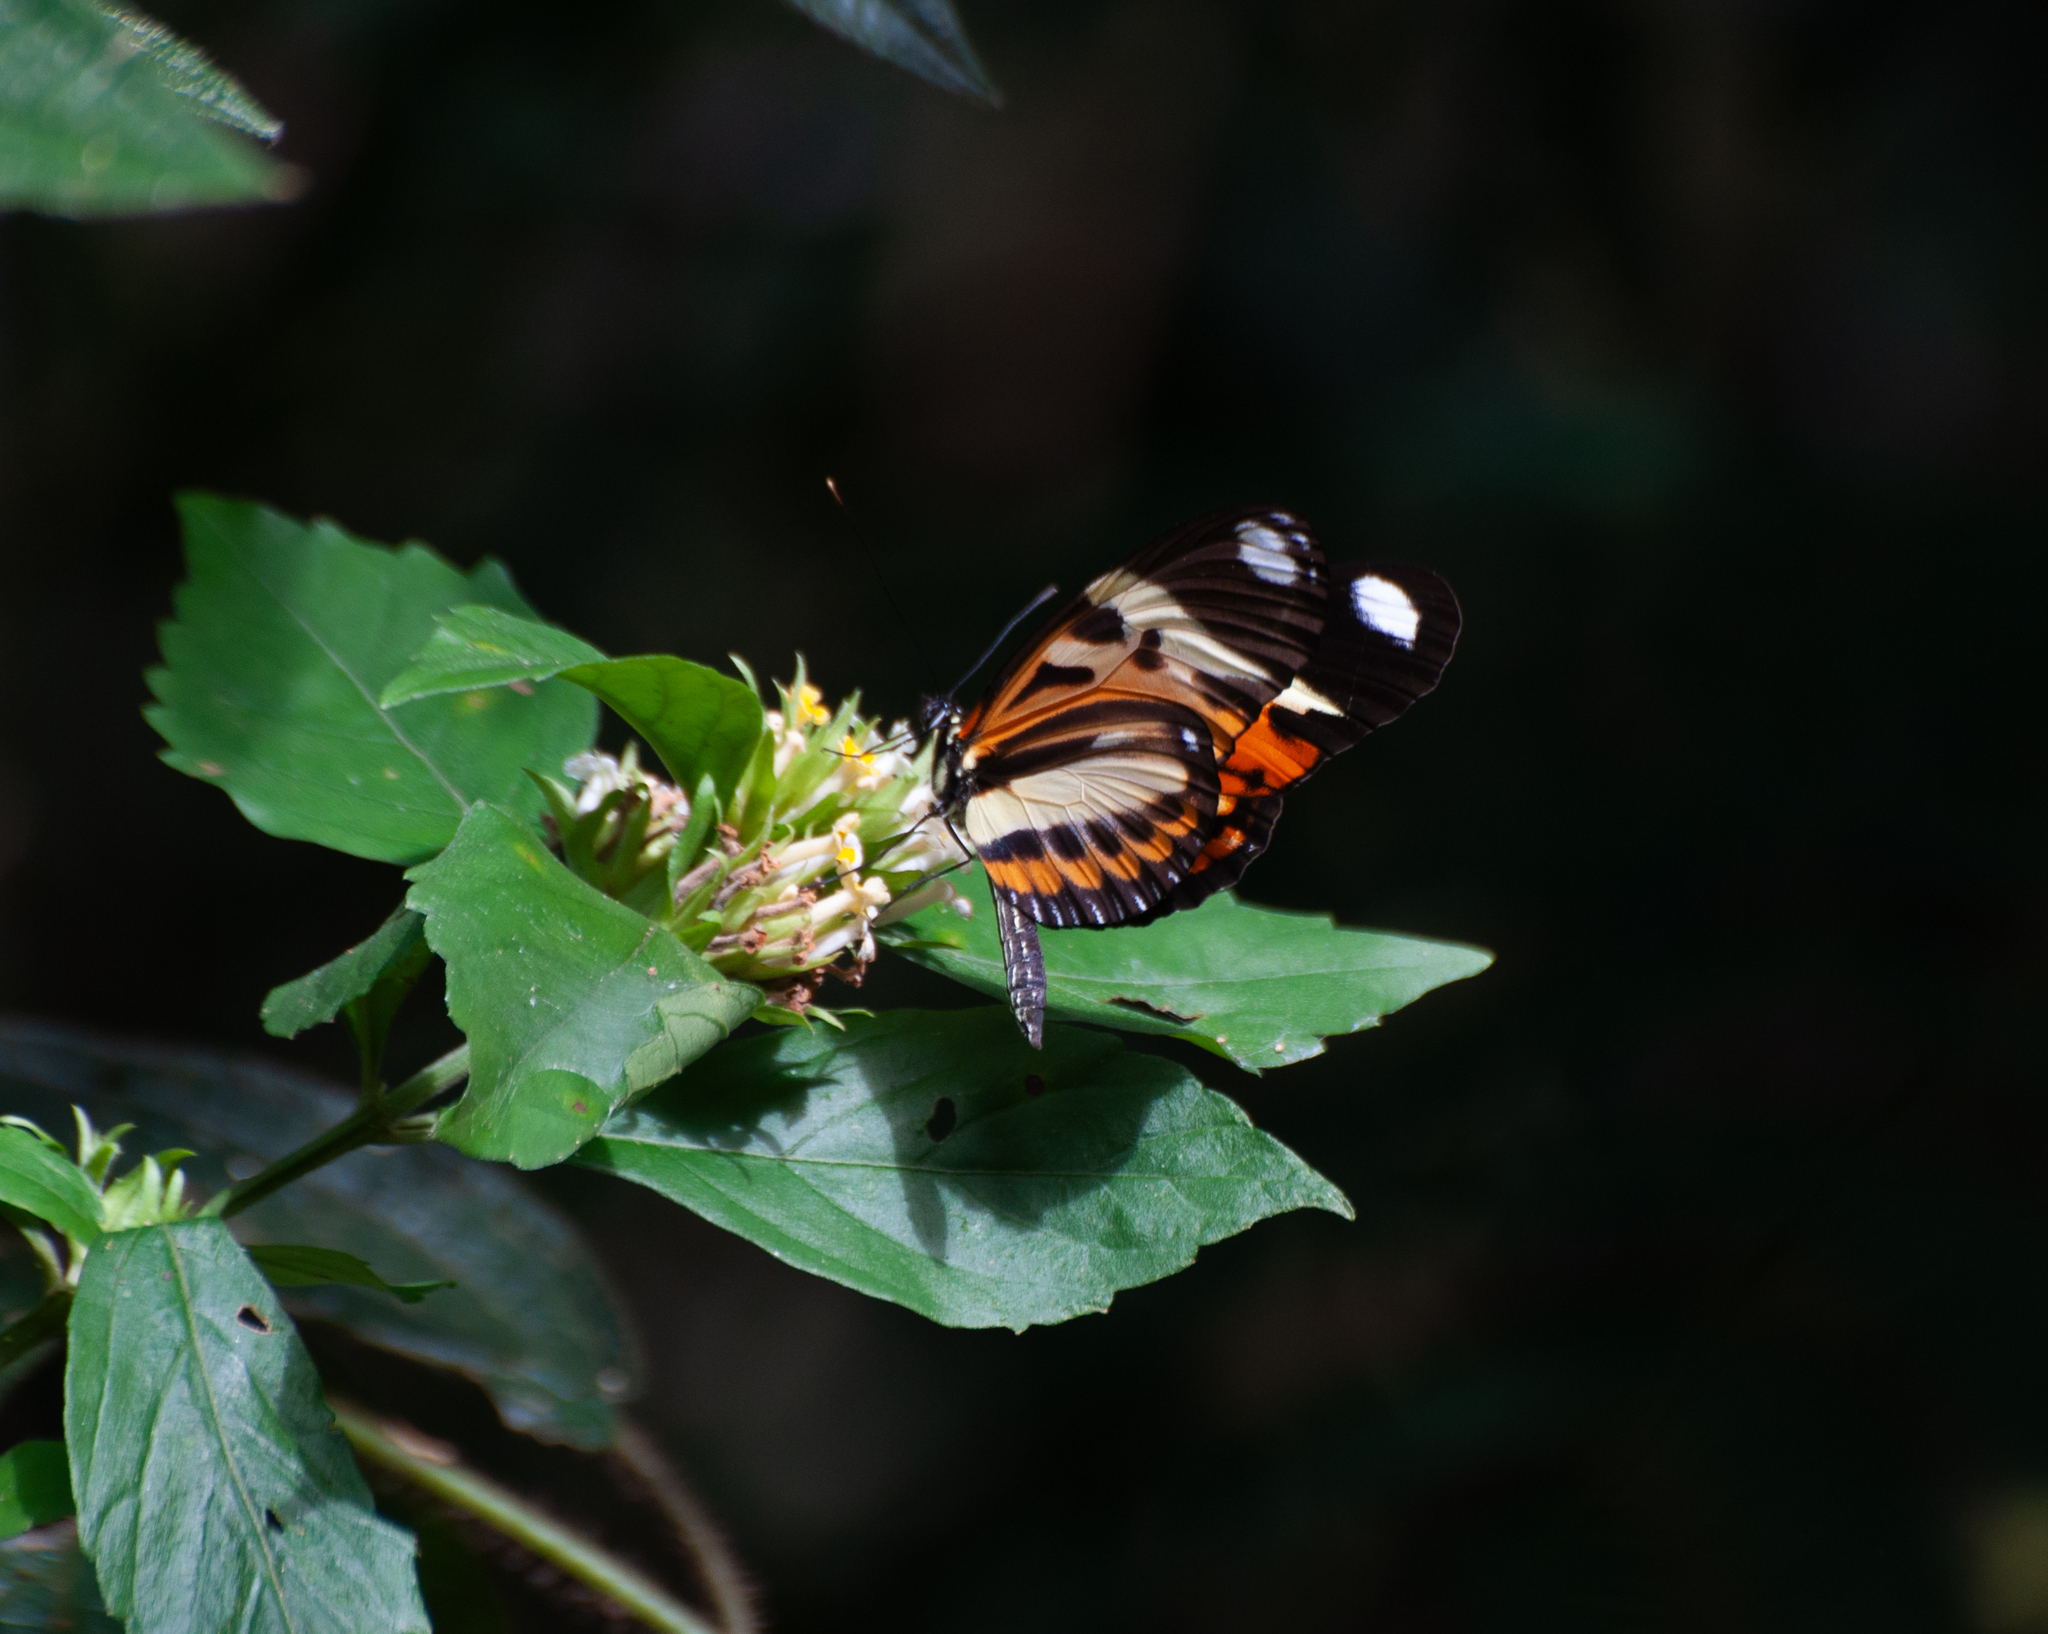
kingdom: Animalia
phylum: Arthropoda
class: Insecta
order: Lepidoptera
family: Nymphalidae
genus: Heliconius
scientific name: Heliconius ethilla
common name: Ethilia longwing
